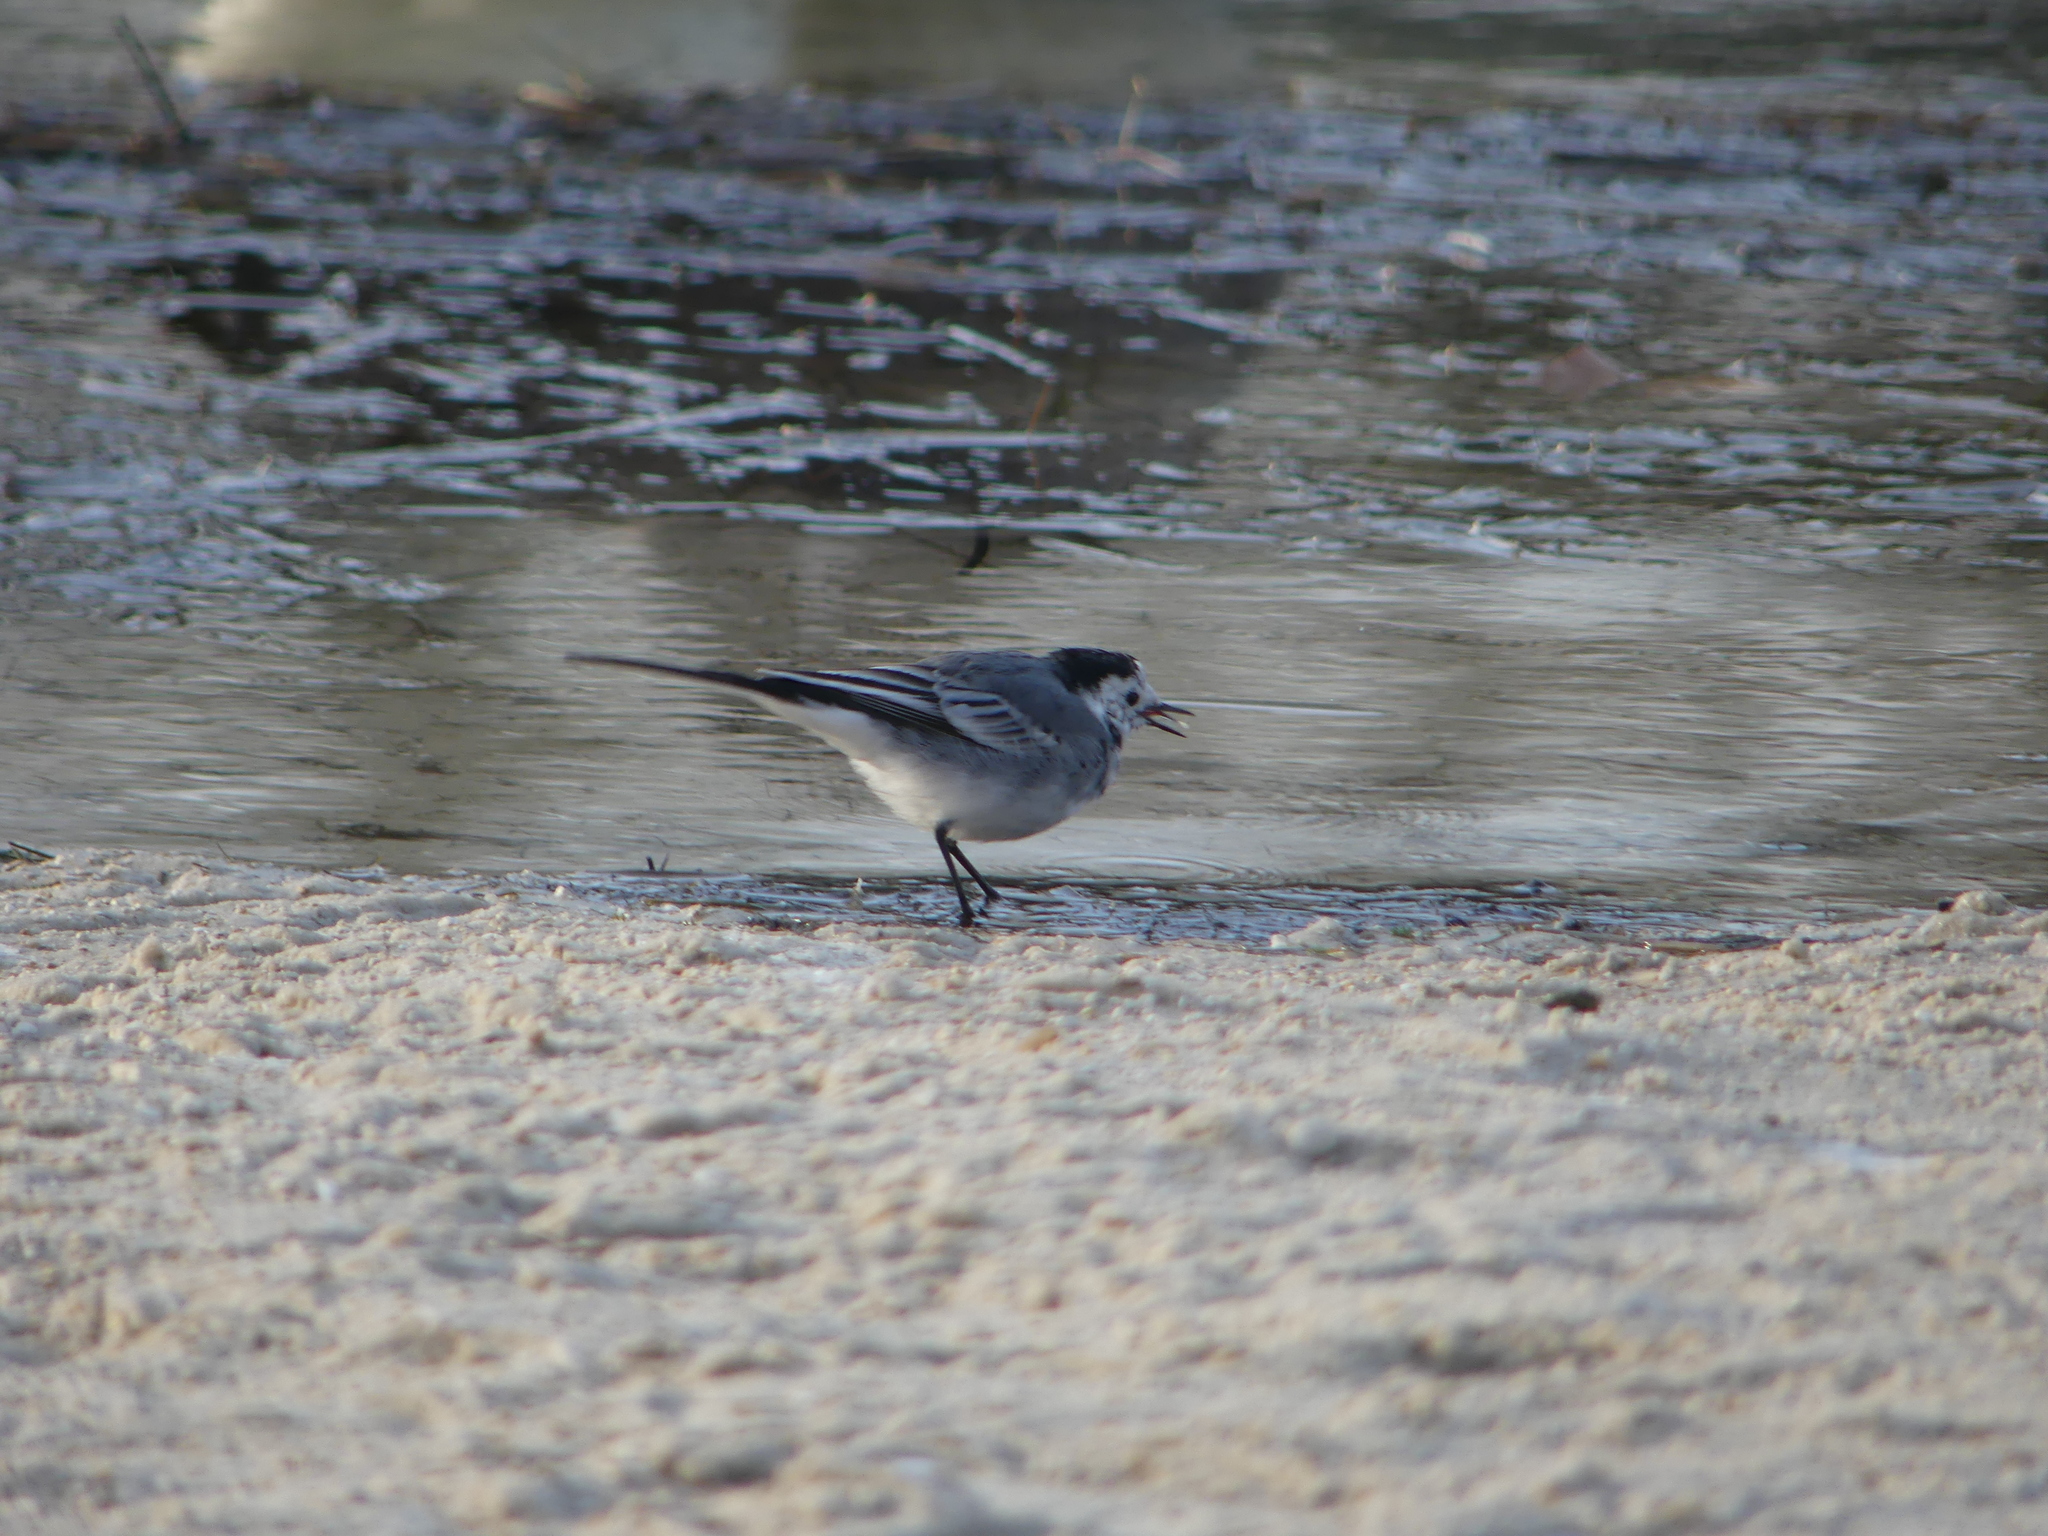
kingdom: Animalia
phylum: Chordata
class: Aves
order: Passeriformes
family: Motacillidae
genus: Motacilla
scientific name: Motacilla alba
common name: White wagtail
